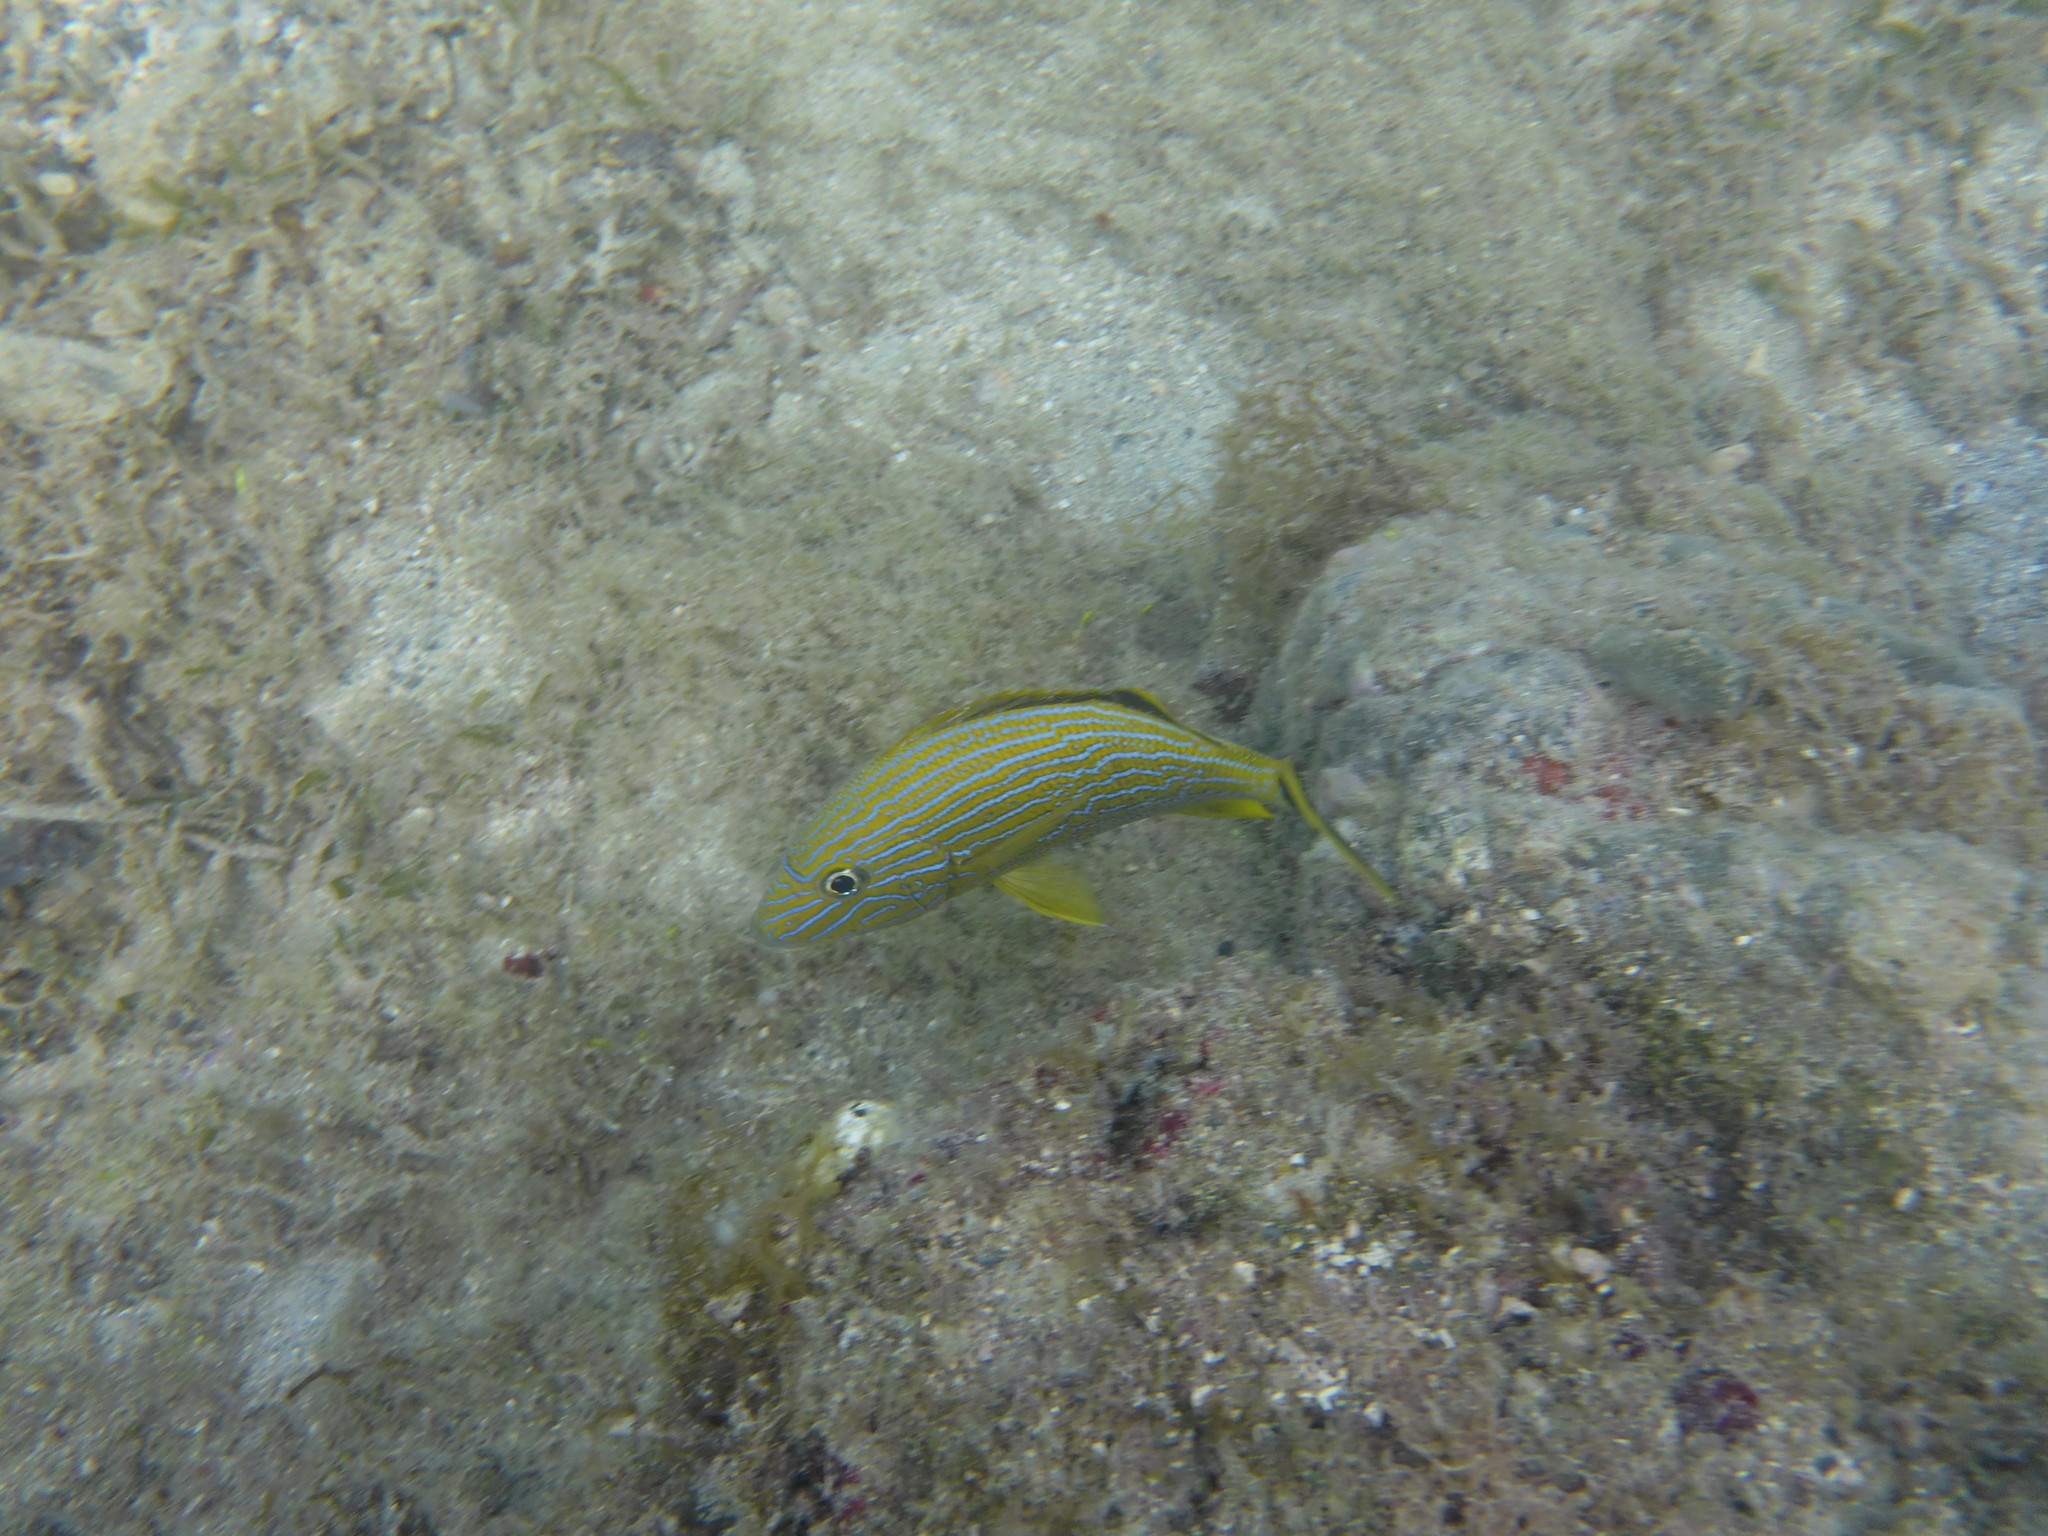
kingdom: Animalia
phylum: Chordata
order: Perciformes
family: Haemulidae
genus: Haemulon
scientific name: Haemulon sciurus
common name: Bluestriped grunt
